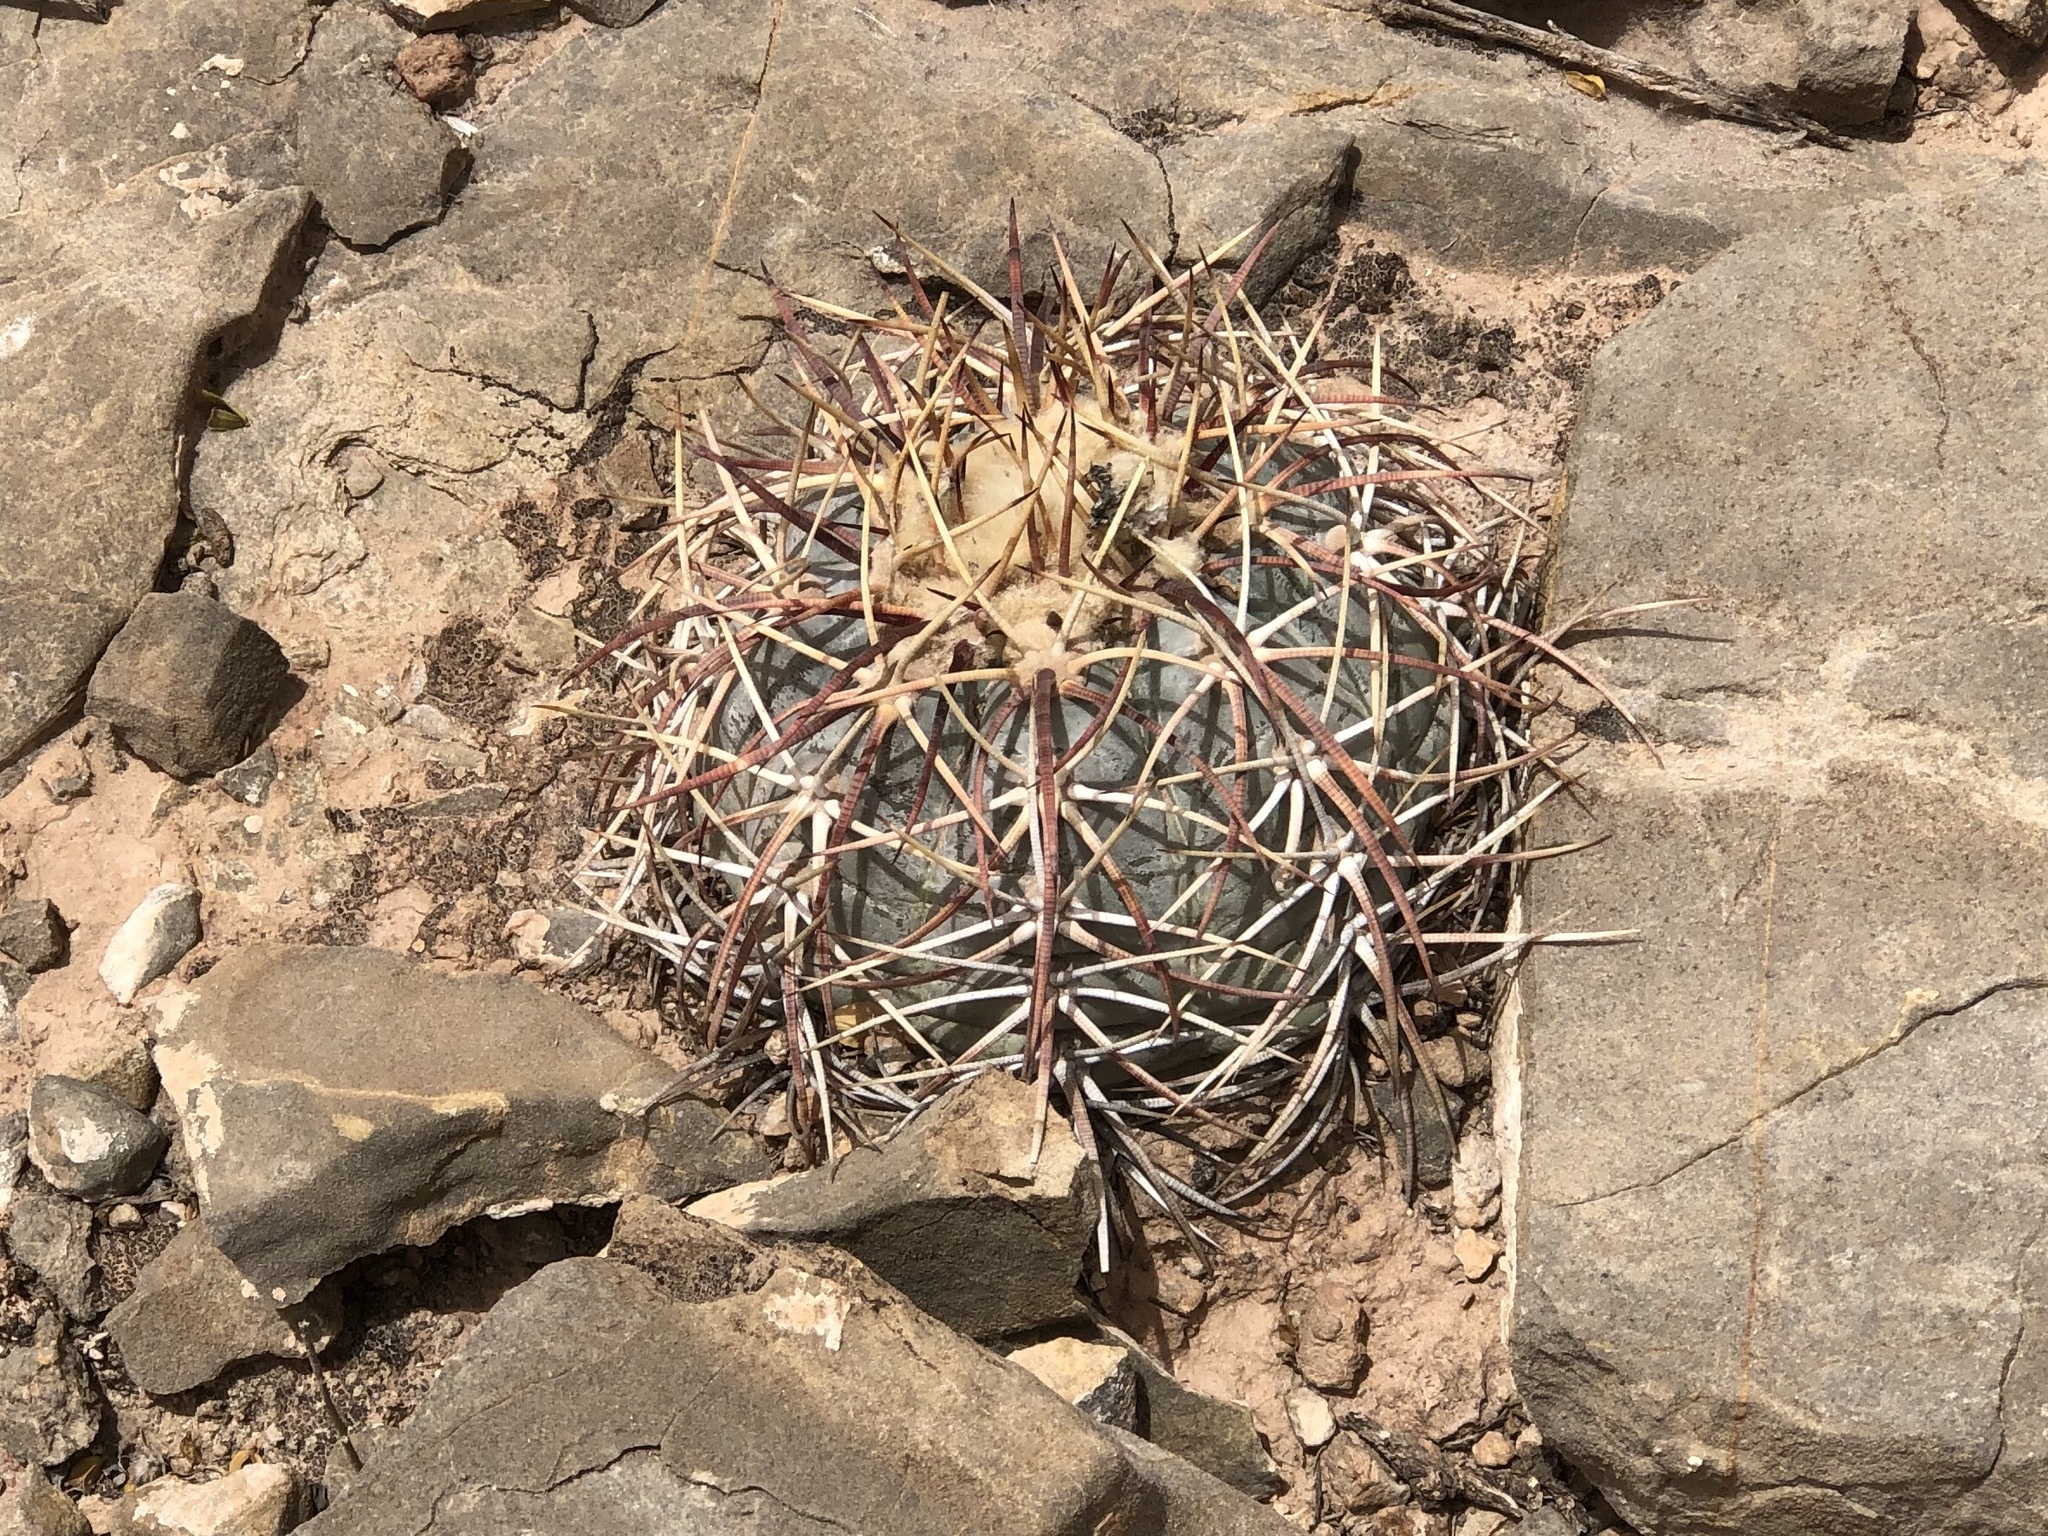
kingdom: Plantae
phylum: Tracheophyta
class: Magnoliopsida
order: Caryophyllales
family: Cactaceae
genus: Echinocactus
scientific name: Echinocactus horizonthalonius
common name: Devilshead
